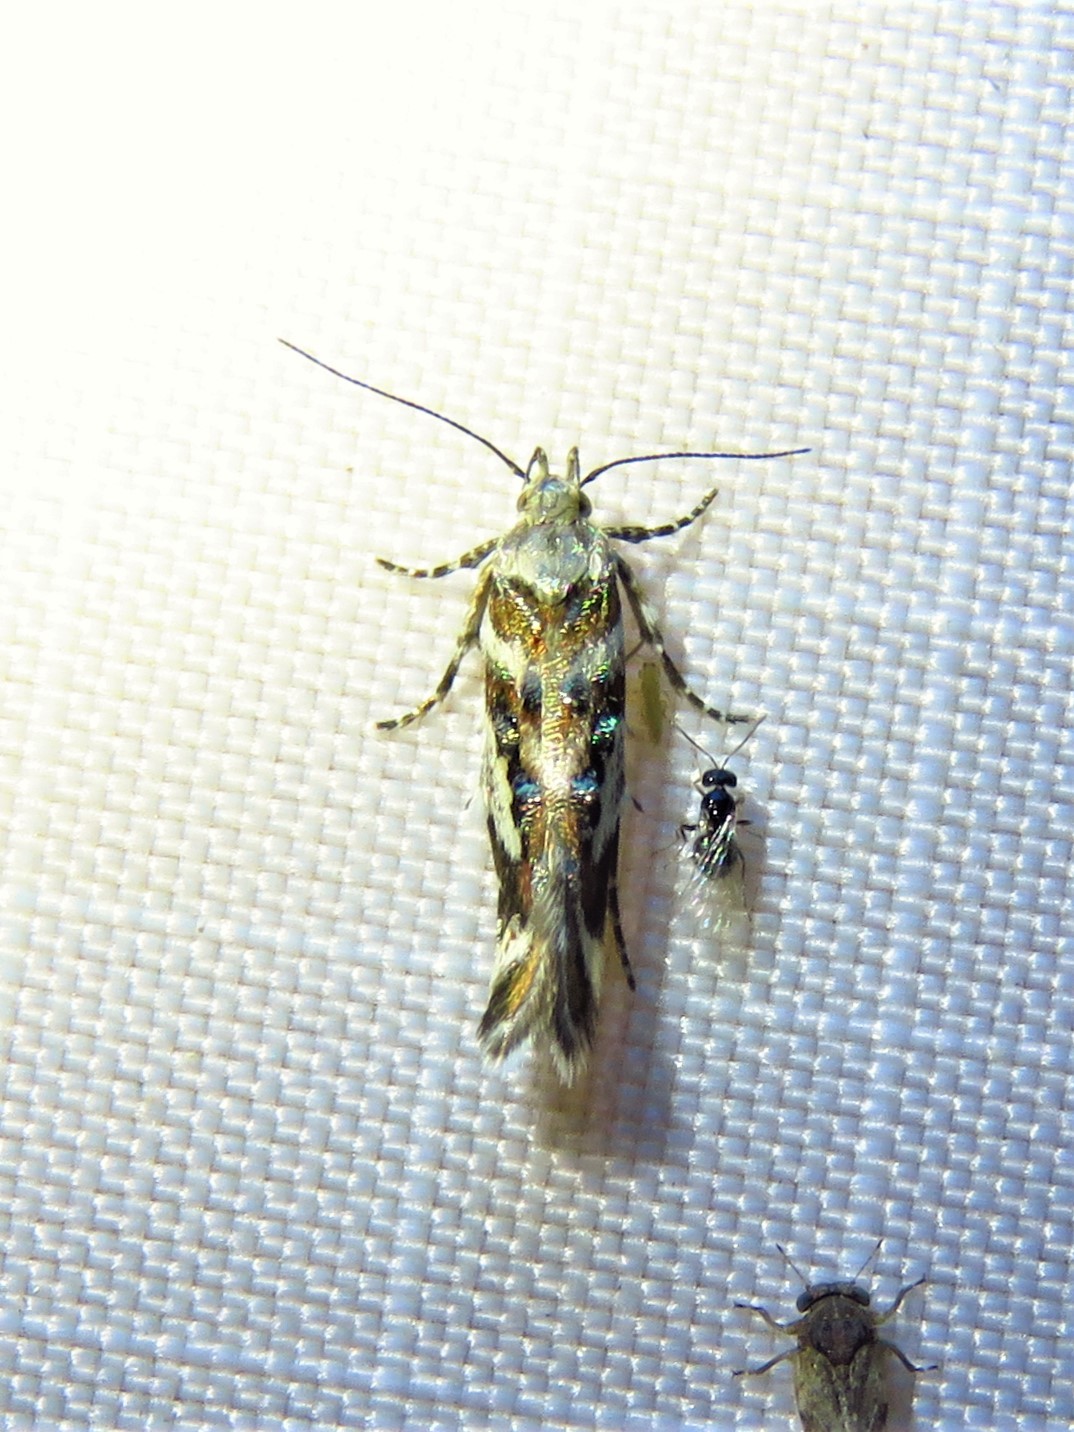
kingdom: Animalia
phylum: Arthropoda
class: Insecta
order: Lepidoptera
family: Gelechiidae
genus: Aristotelia
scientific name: Aristotelia elegantella
